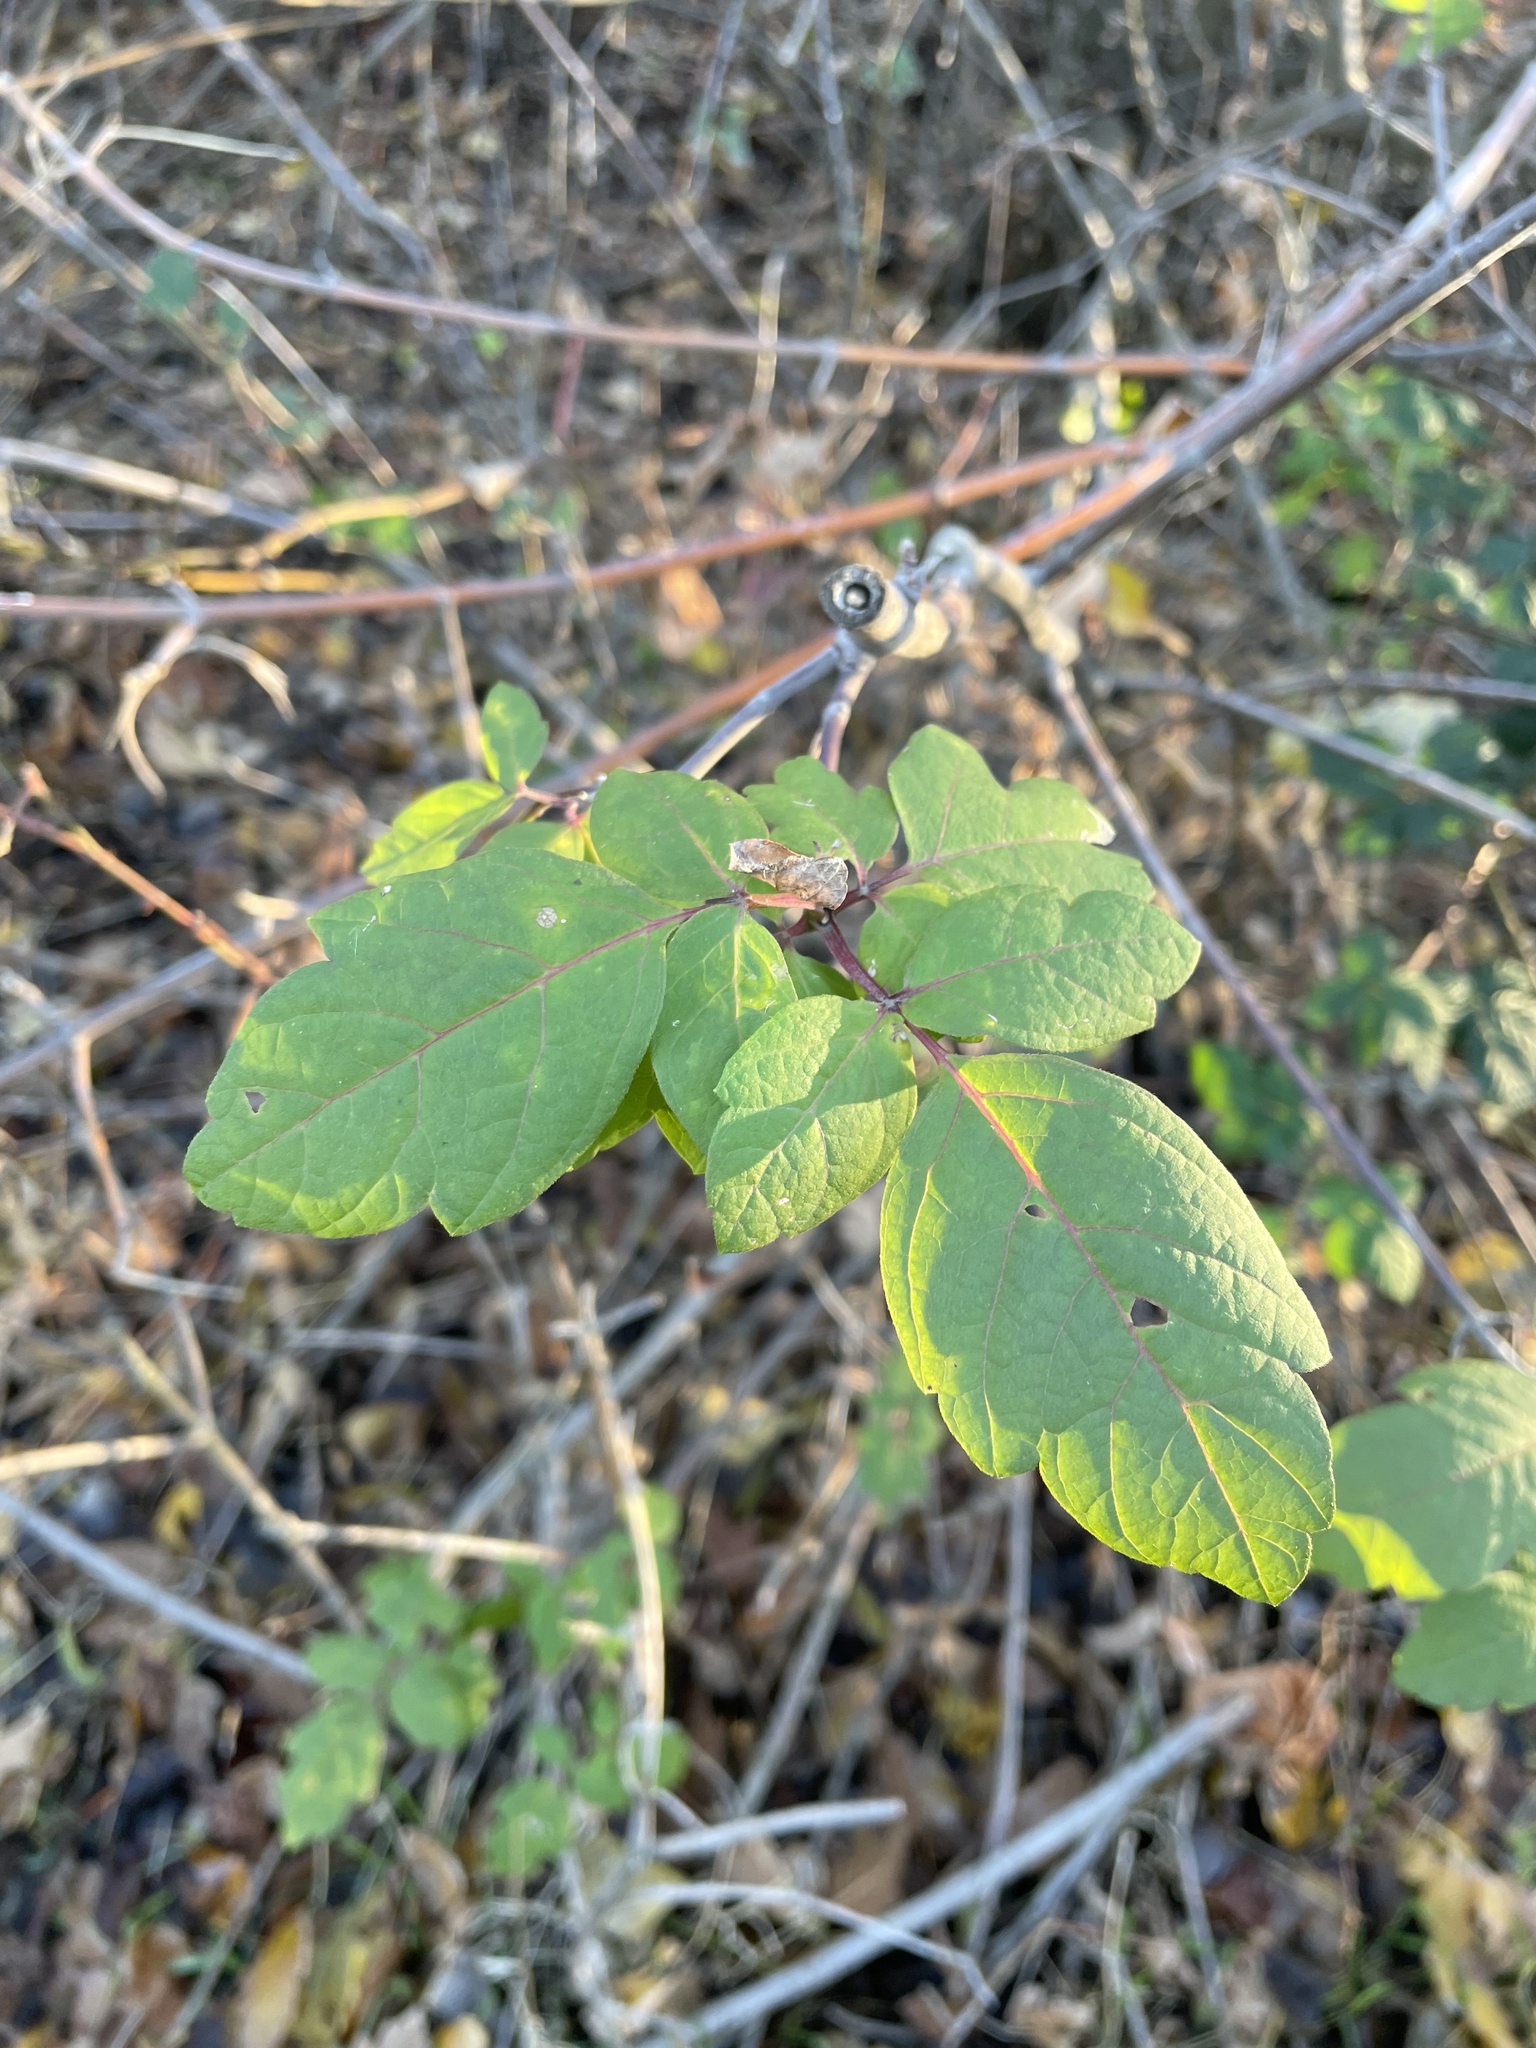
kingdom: Plantae
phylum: Tracheophyta
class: Magnoliopsida
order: Sapindales
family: Anacardiaceae
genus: Toxicodendron
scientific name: Toxicodendron diversilobum
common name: Pacific poison-oak
